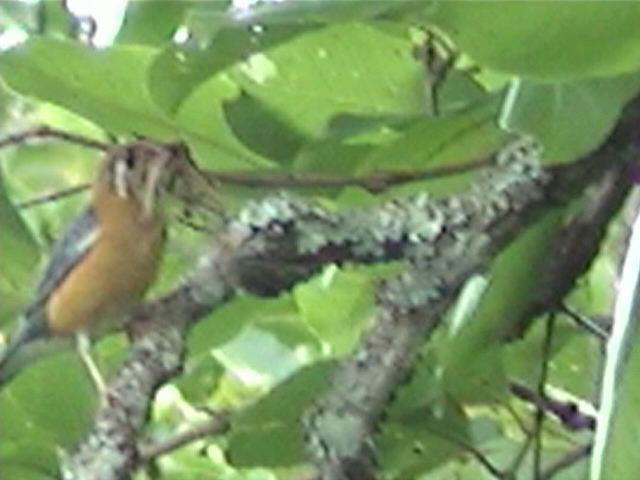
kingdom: Animalia
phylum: Chordata
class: Aves
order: Passeriformes
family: Turdidae
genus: Geokichla
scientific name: Geokichla citrina
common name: Orange-headed thrush
